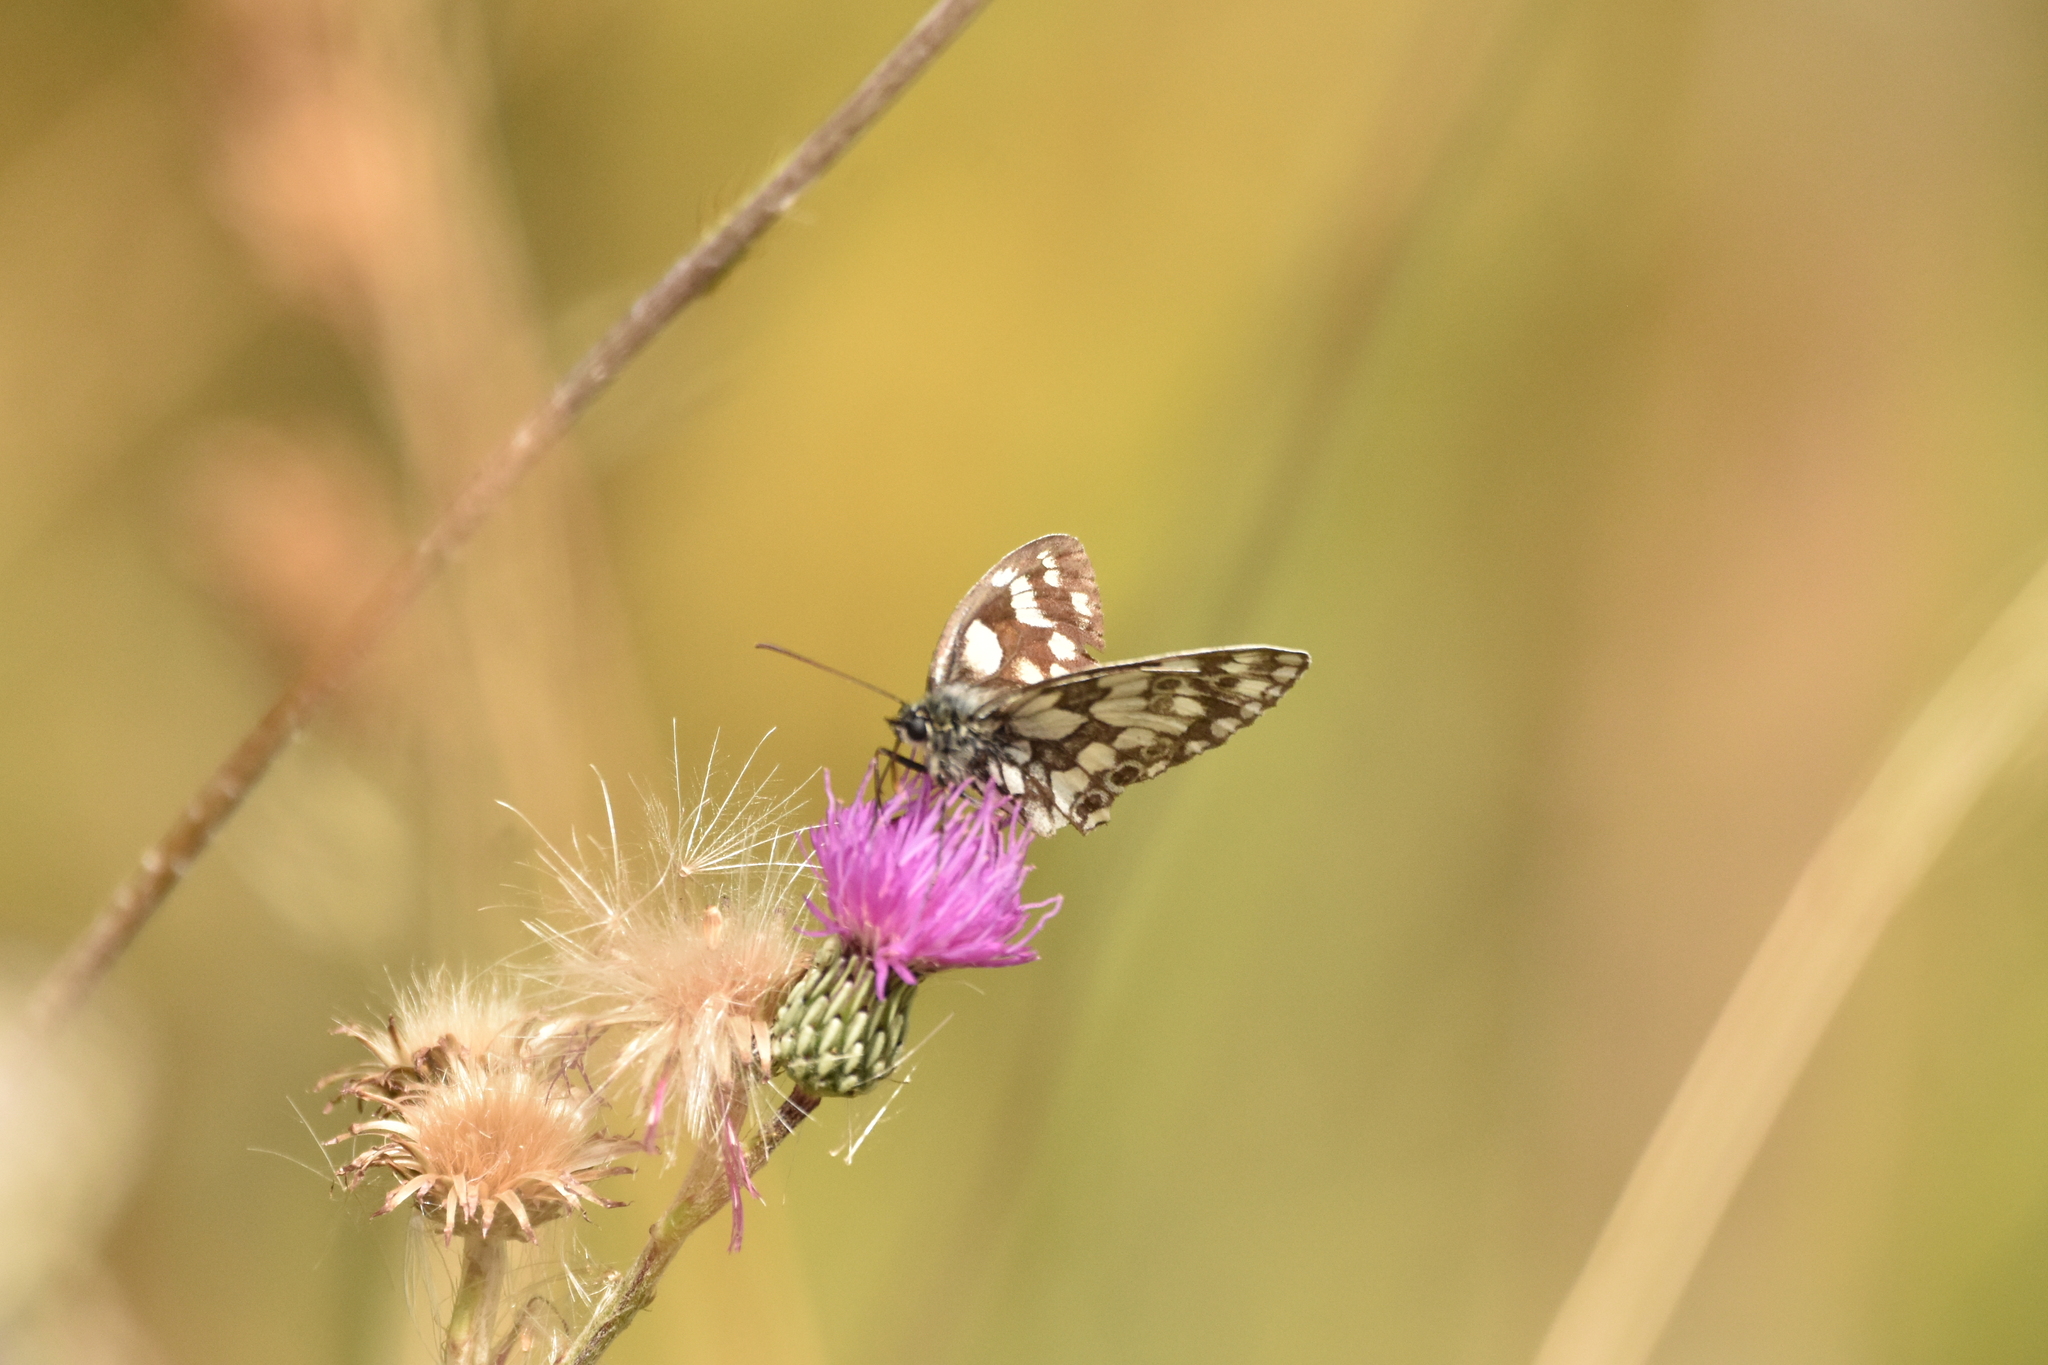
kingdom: Animalia
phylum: Arthropoda
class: Insecta
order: Lepidoptera
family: Nymphalidae
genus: Melanargia
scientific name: Melanargia galathea
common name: Marbled white
